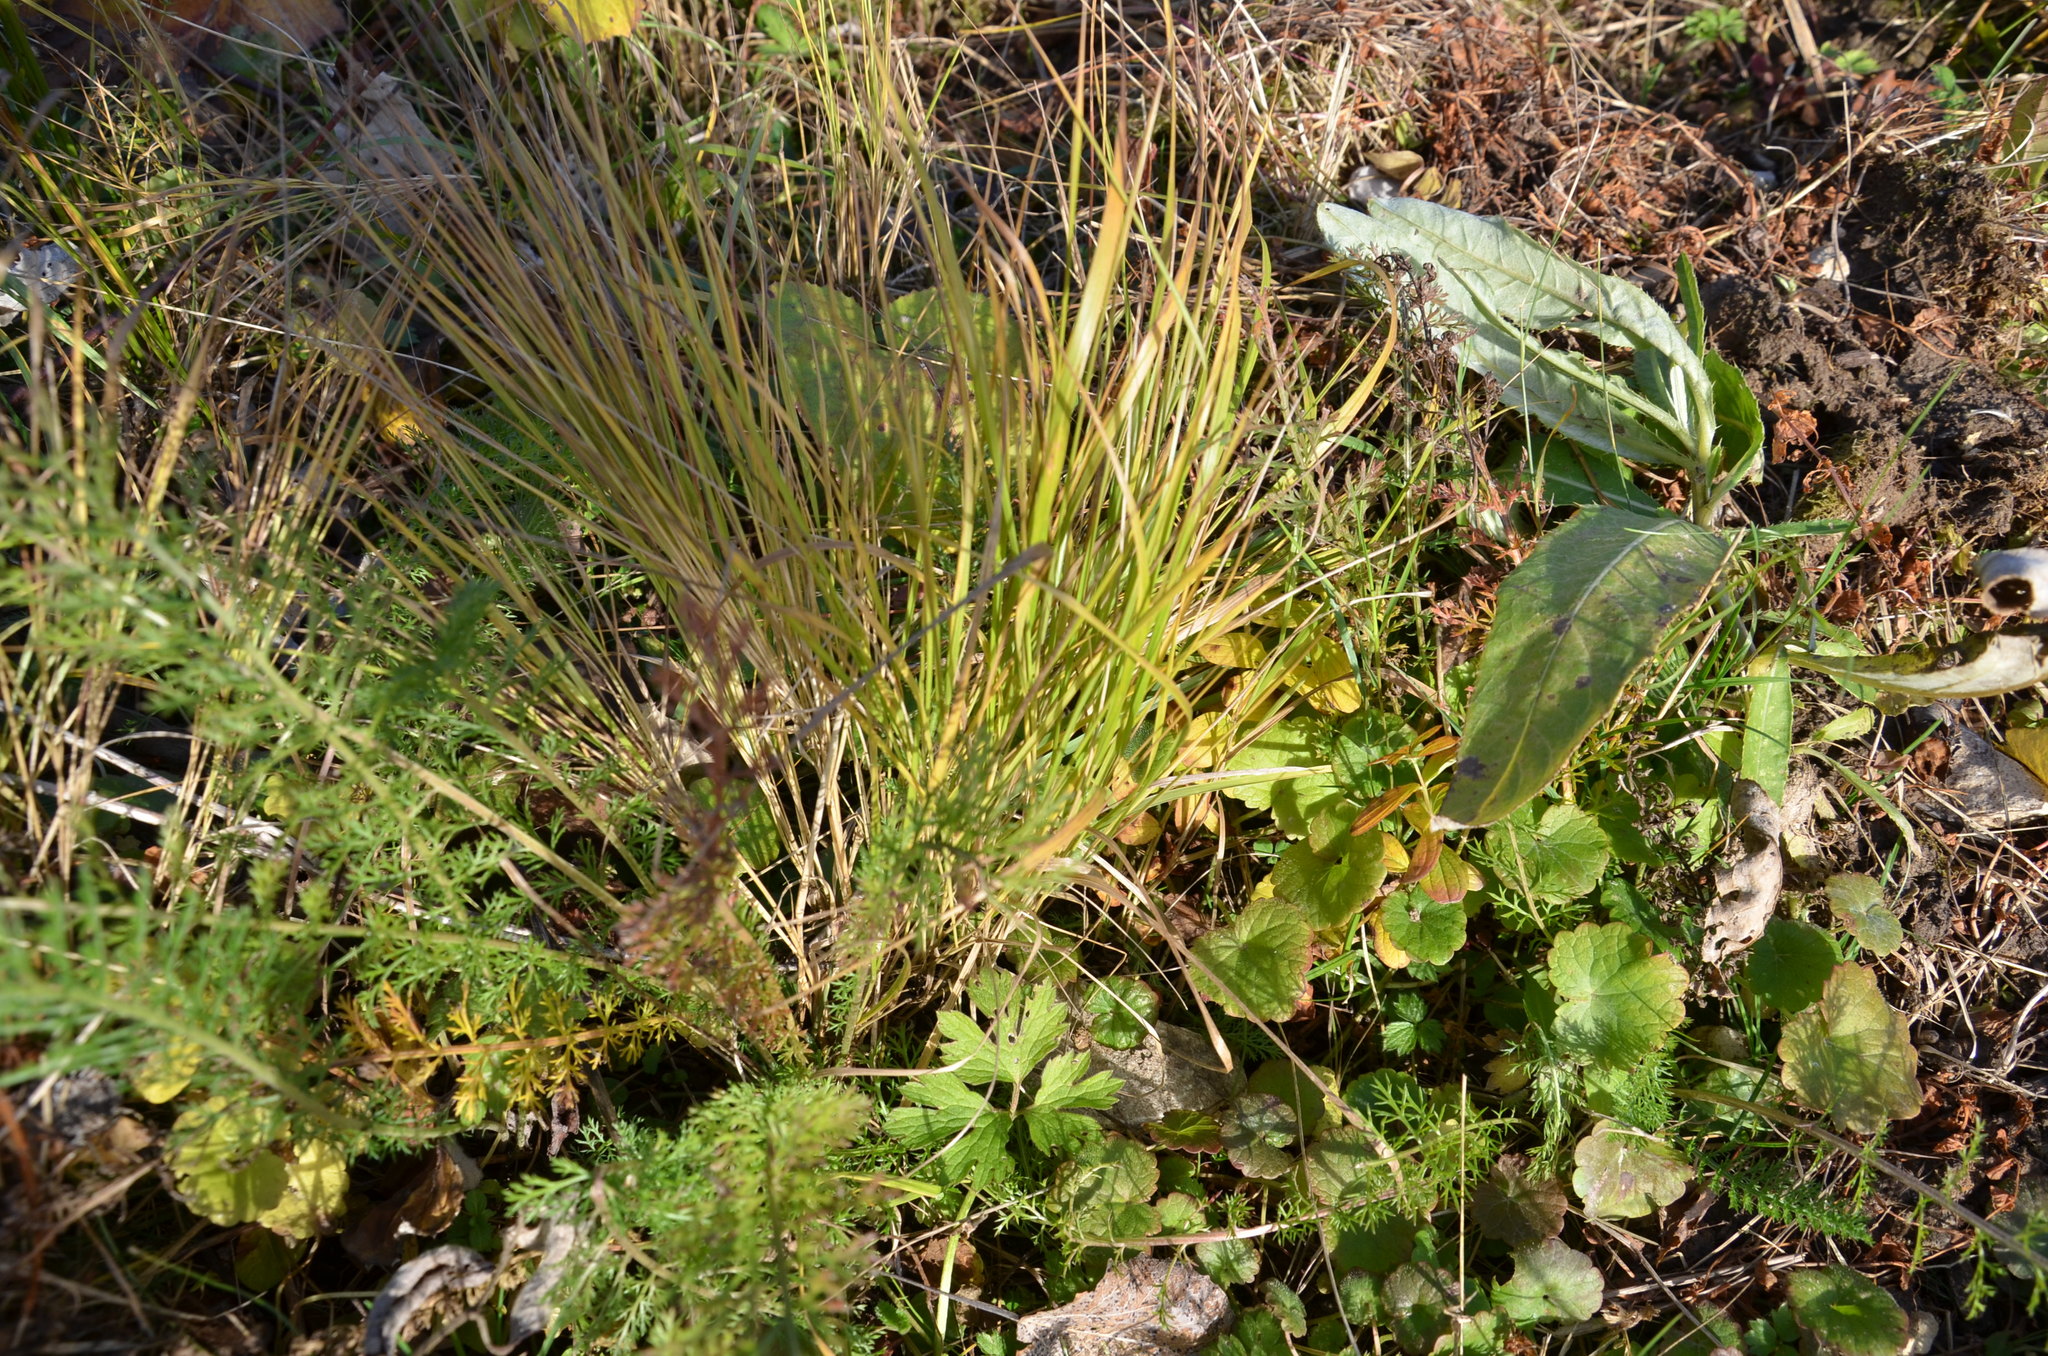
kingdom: Plantae
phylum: Tracheophyta
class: Liliopsida
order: Poales
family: Poaceae
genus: Calamagrostis
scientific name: Calamagrostis canescens
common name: Purple small-reed
